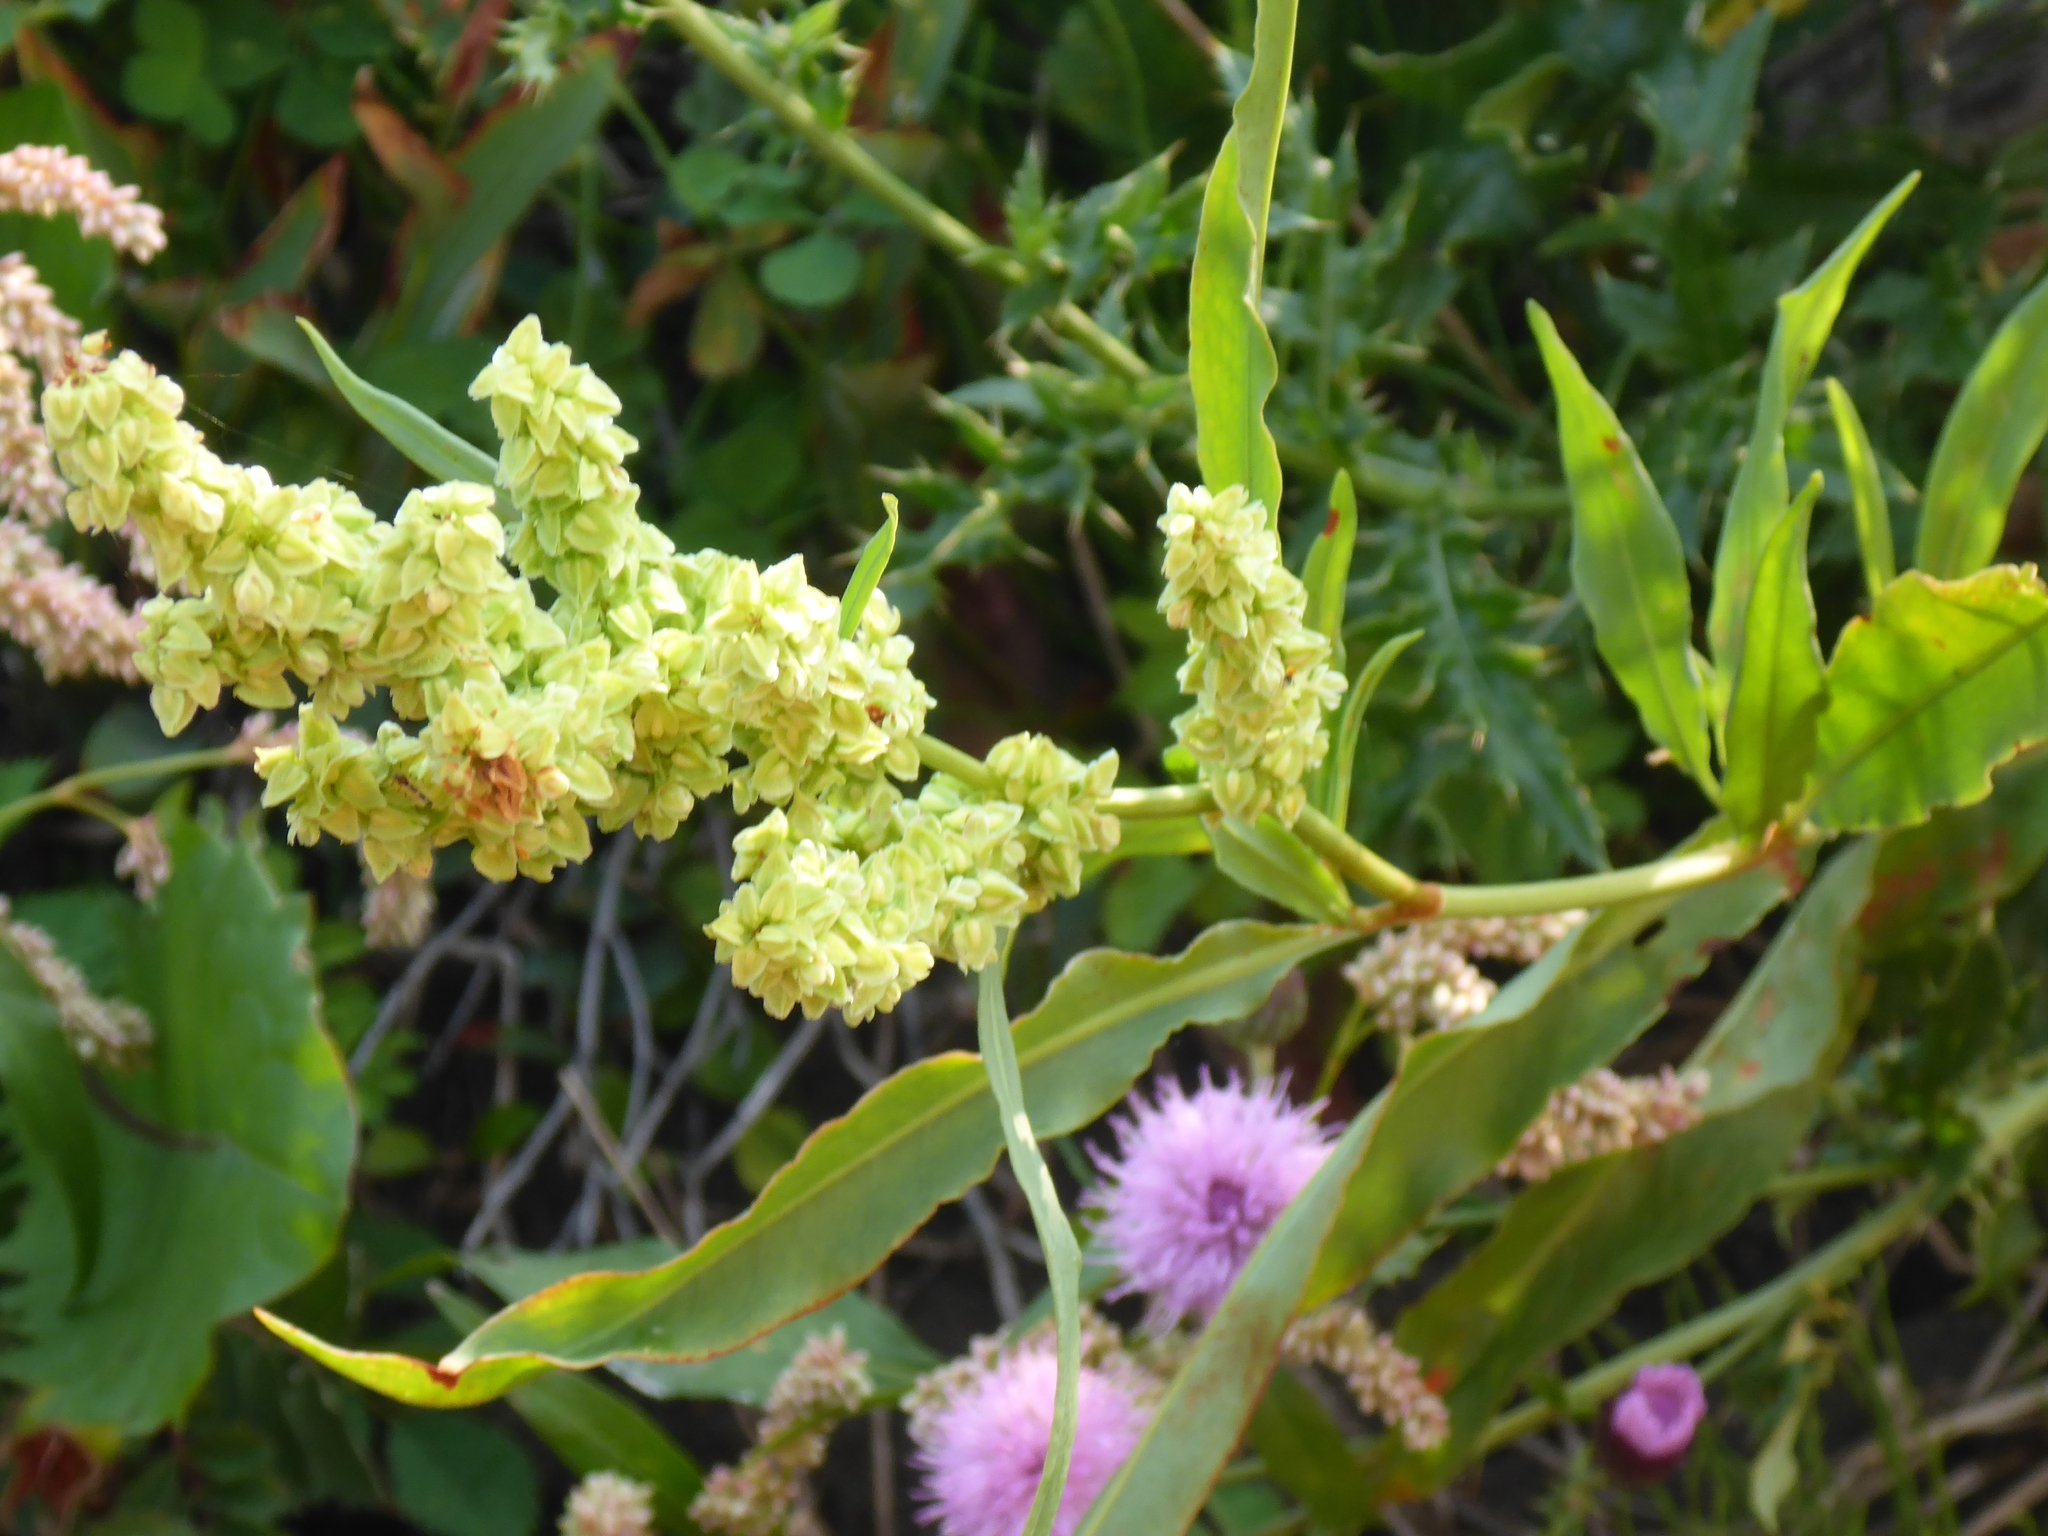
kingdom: Plantae
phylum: Tracheophyta
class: Magnoliopsida
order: Caryophyllales
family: Polygonaceae
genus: Rumex
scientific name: Rumex triangulivalvis
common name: Triangular-valve dock
